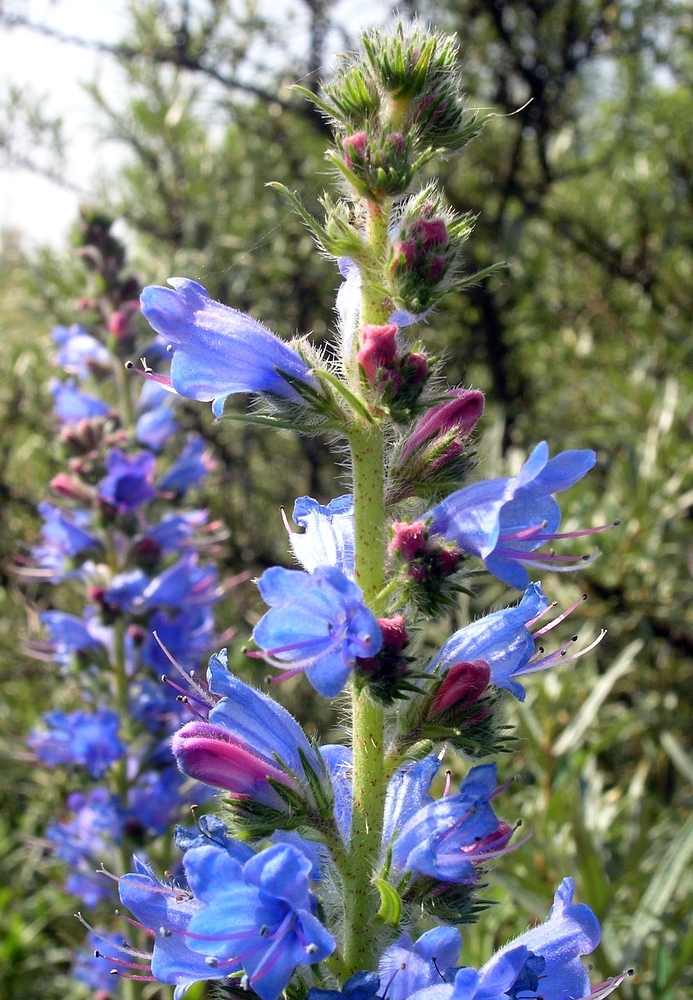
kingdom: Plantae
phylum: Tracheophyta
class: Magnoliopsida
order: Boraginales
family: Boraginaceae
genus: Echium
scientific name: Echium vulgare
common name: Common viper's bugloss
